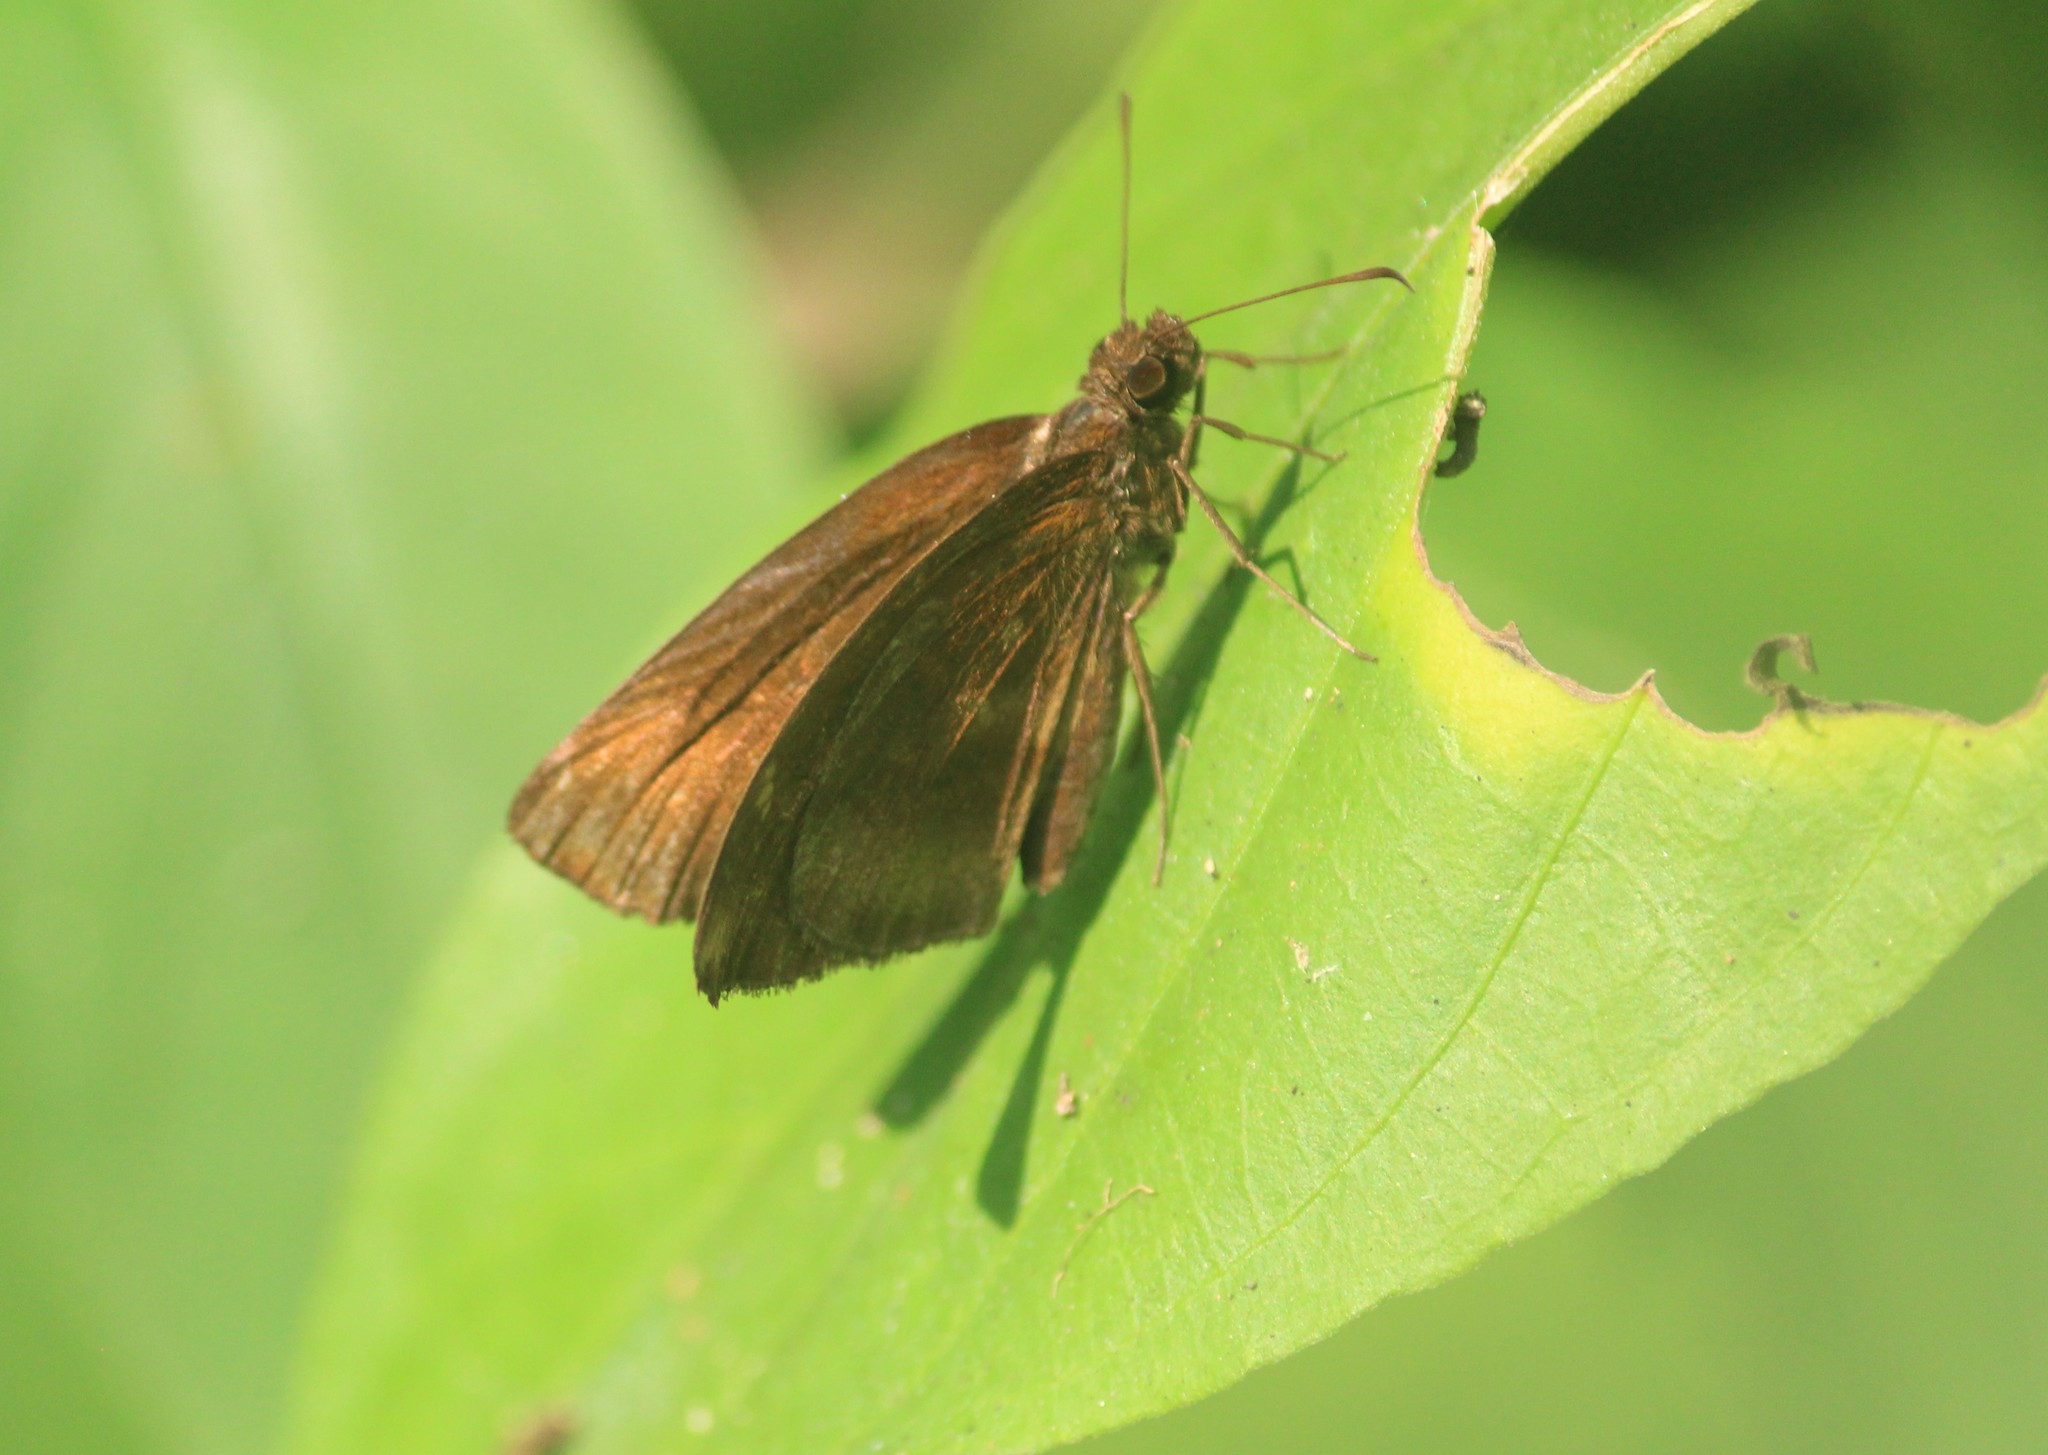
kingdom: Animalia
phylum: Arthropoda
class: Insecta
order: Lepidoptera
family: Hesperiidae
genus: Psolos
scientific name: Psolos fuligo
